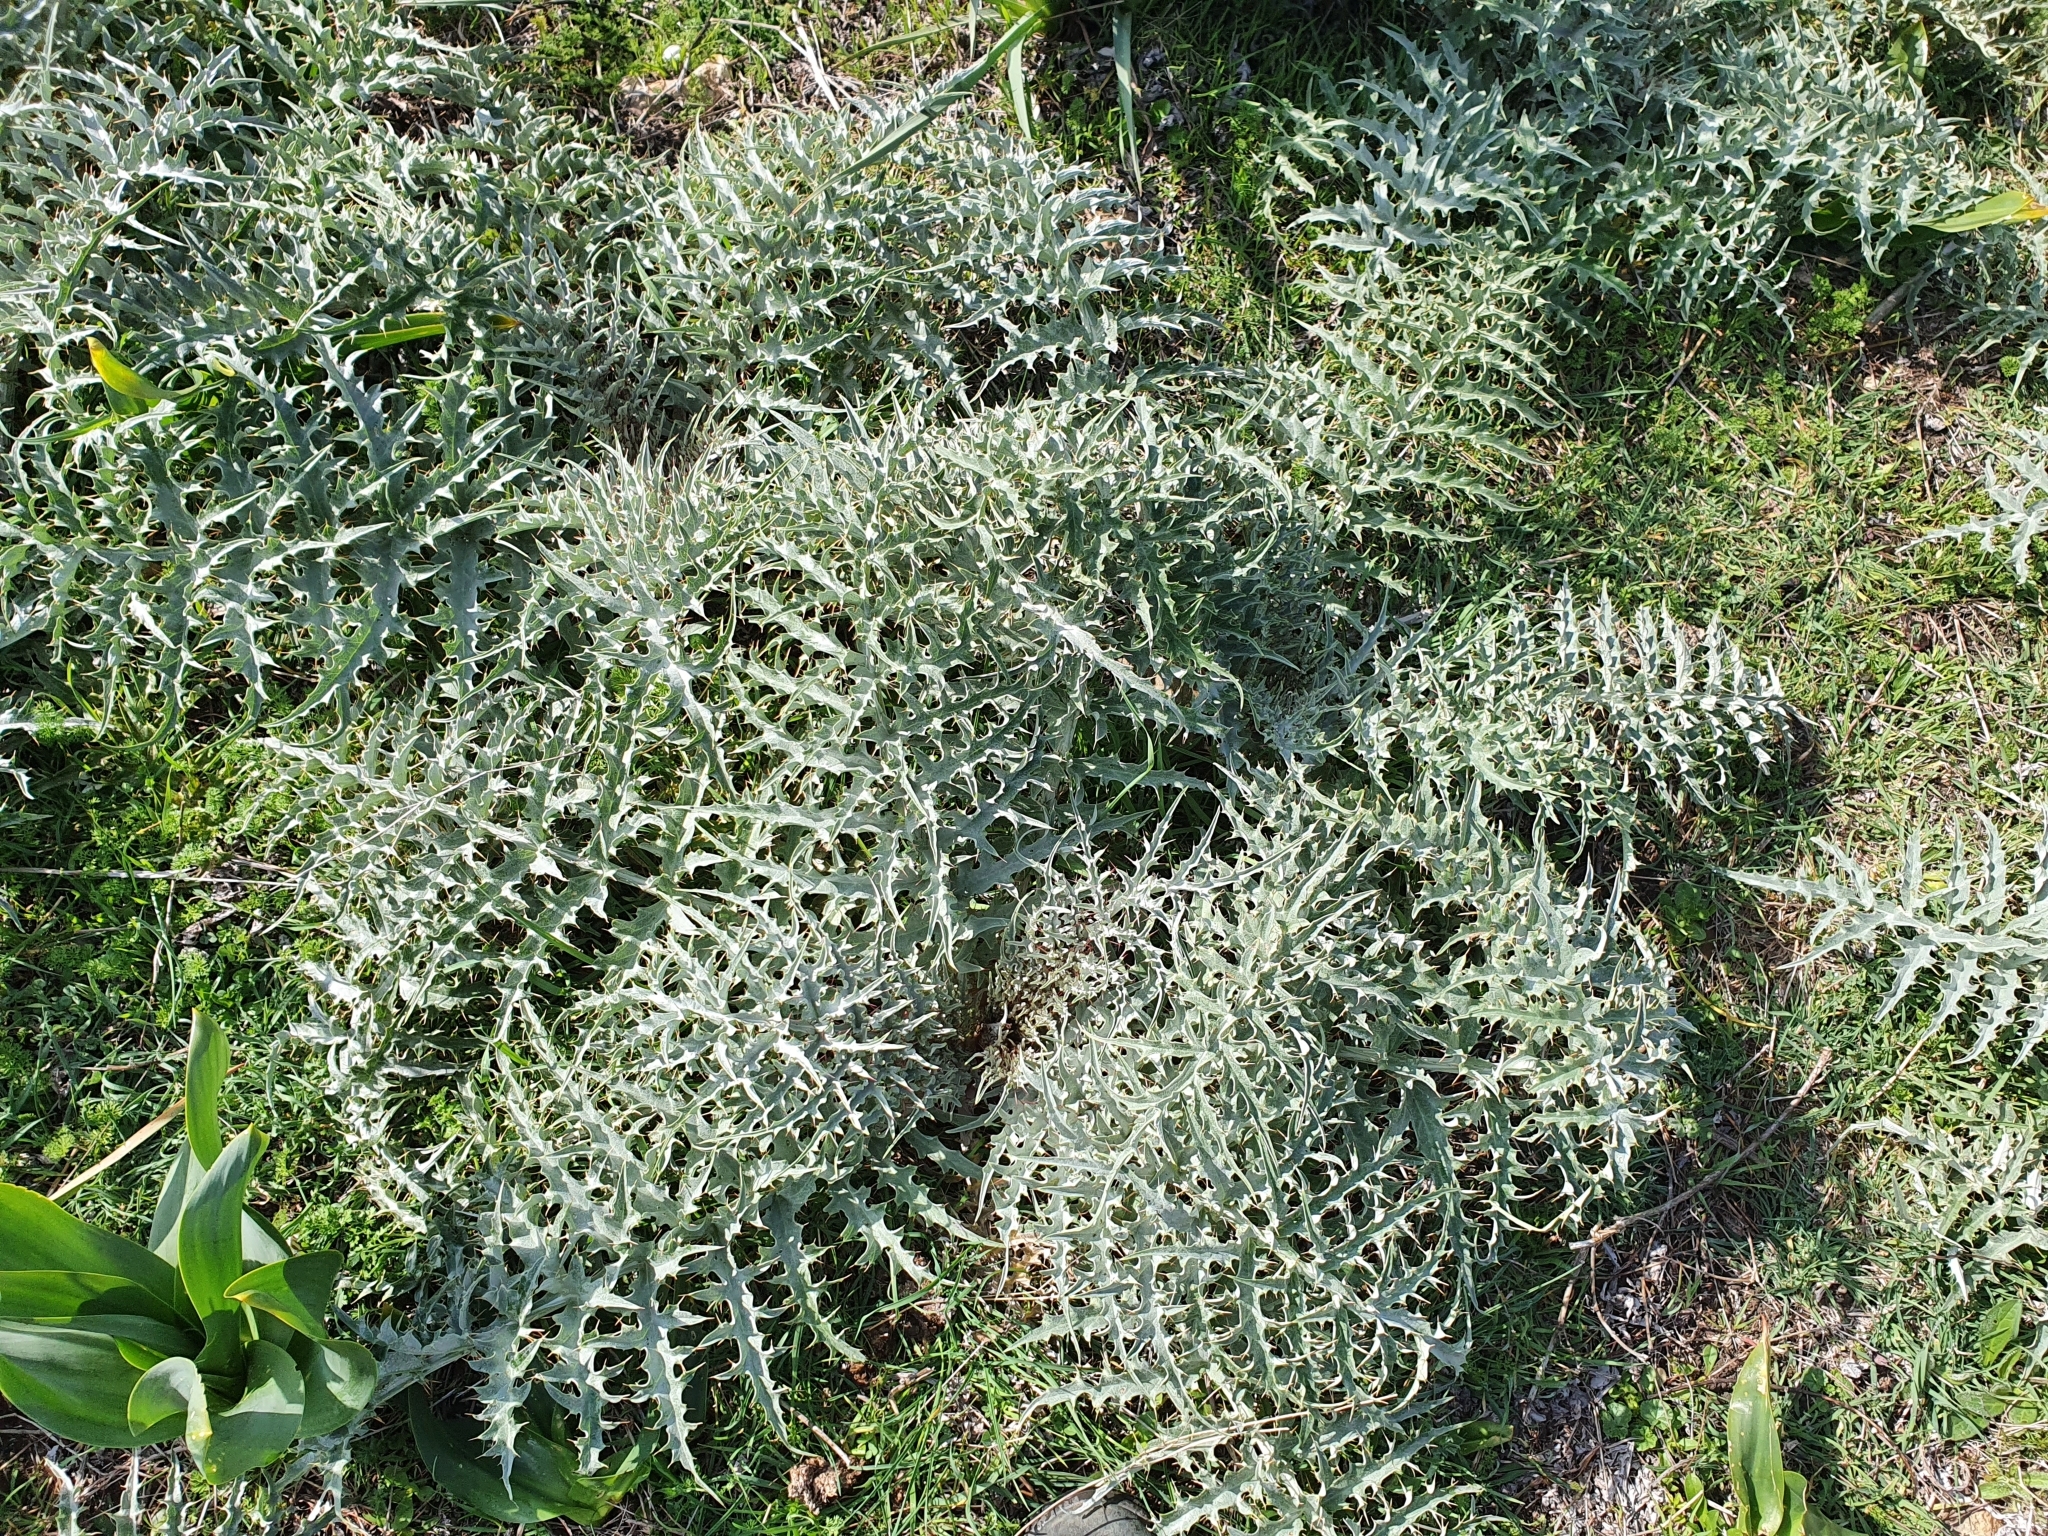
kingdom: Plantae
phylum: Tracheophyta
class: Magnoliopsida
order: Asterales
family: Asteraceae
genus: Cynara
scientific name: Cynara cardunculus
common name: Globe artichoke
